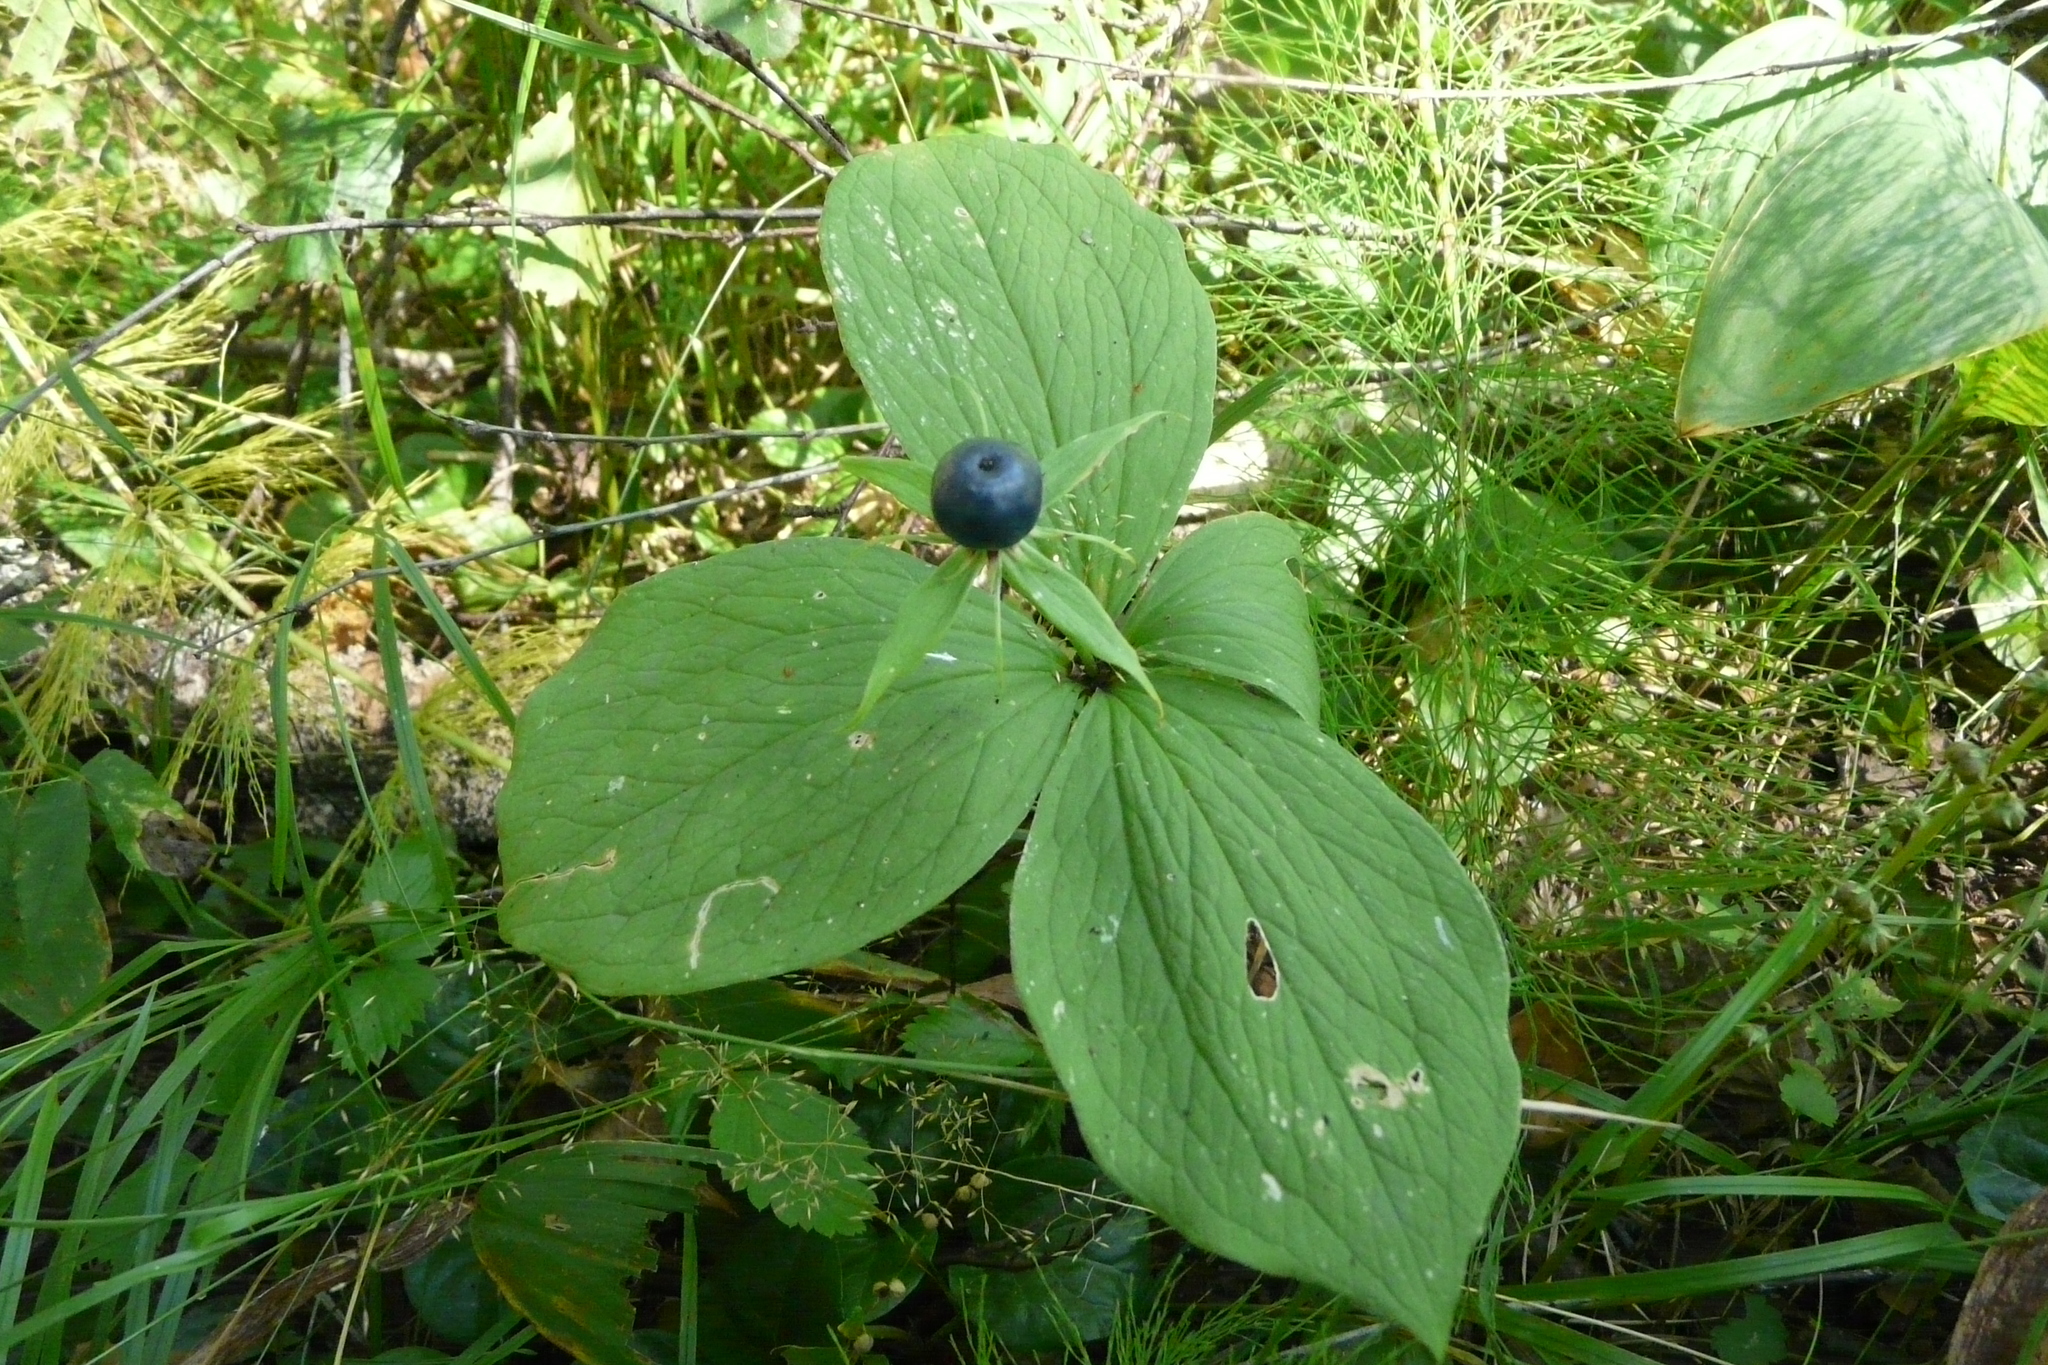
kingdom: Plantae
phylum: Tracheophyta
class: Liliopsida
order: Liliales
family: Melanthiaceae
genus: Paris
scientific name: Paris quadrifolia
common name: Herb-paris
